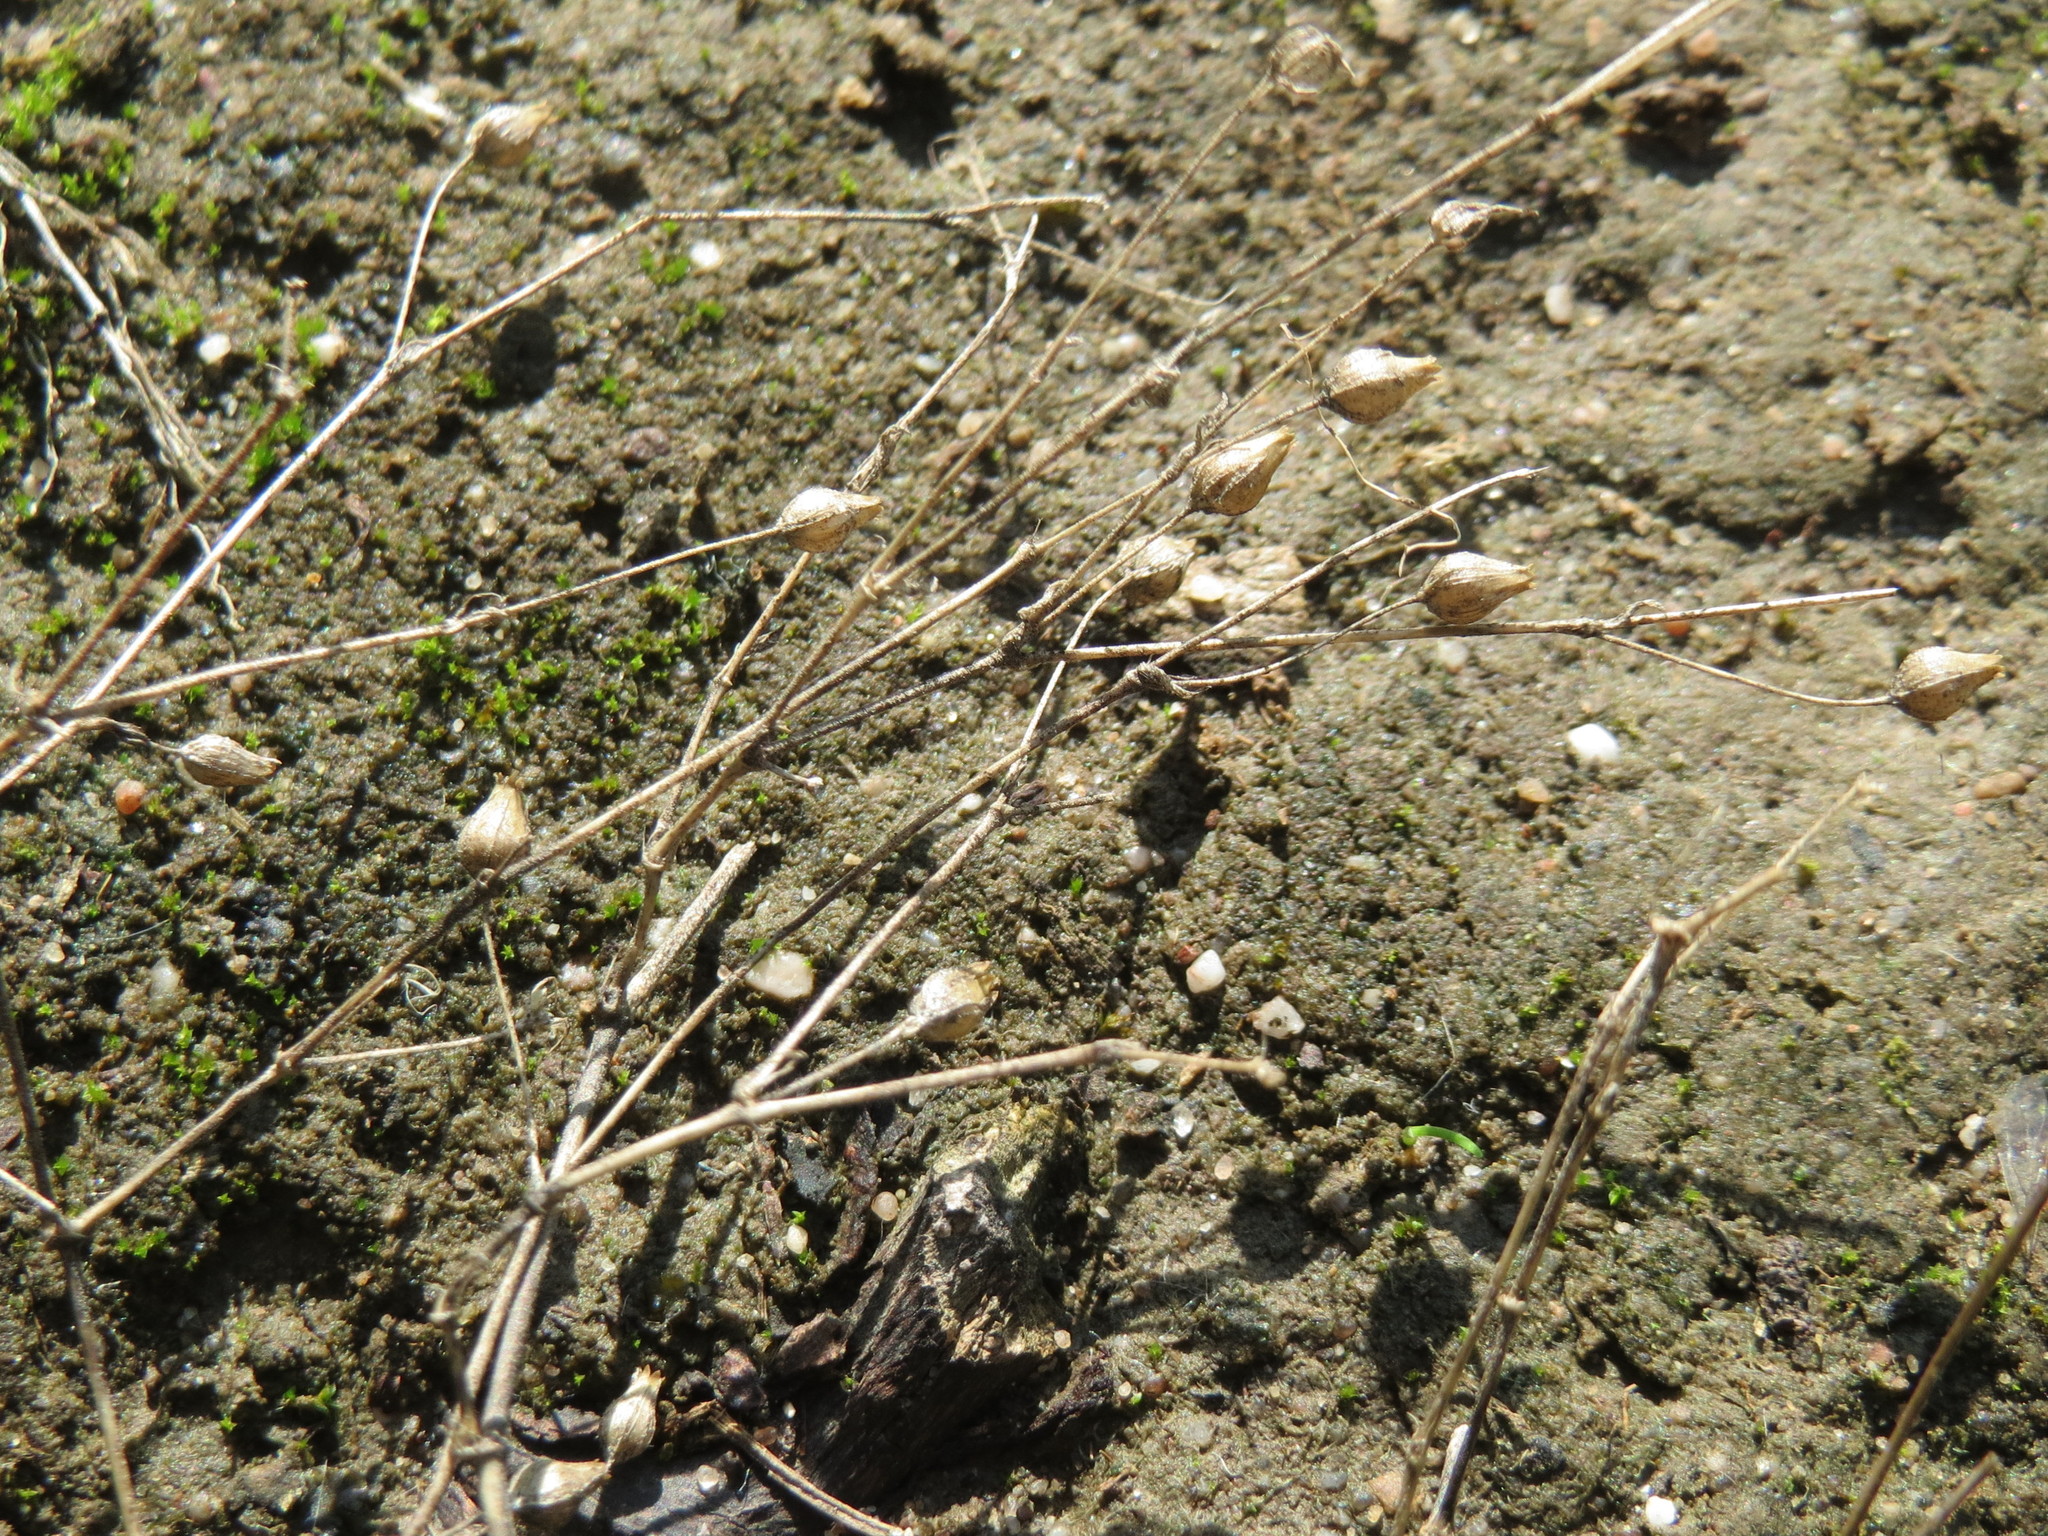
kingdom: Plantae
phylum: Tracheophyta
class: Magnoliopsida
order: Caryophyllales
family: Caryophyllaceae
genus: Arenaria
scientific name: Arenaria serpyllifolia
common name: Thyme-leaved sandwort
